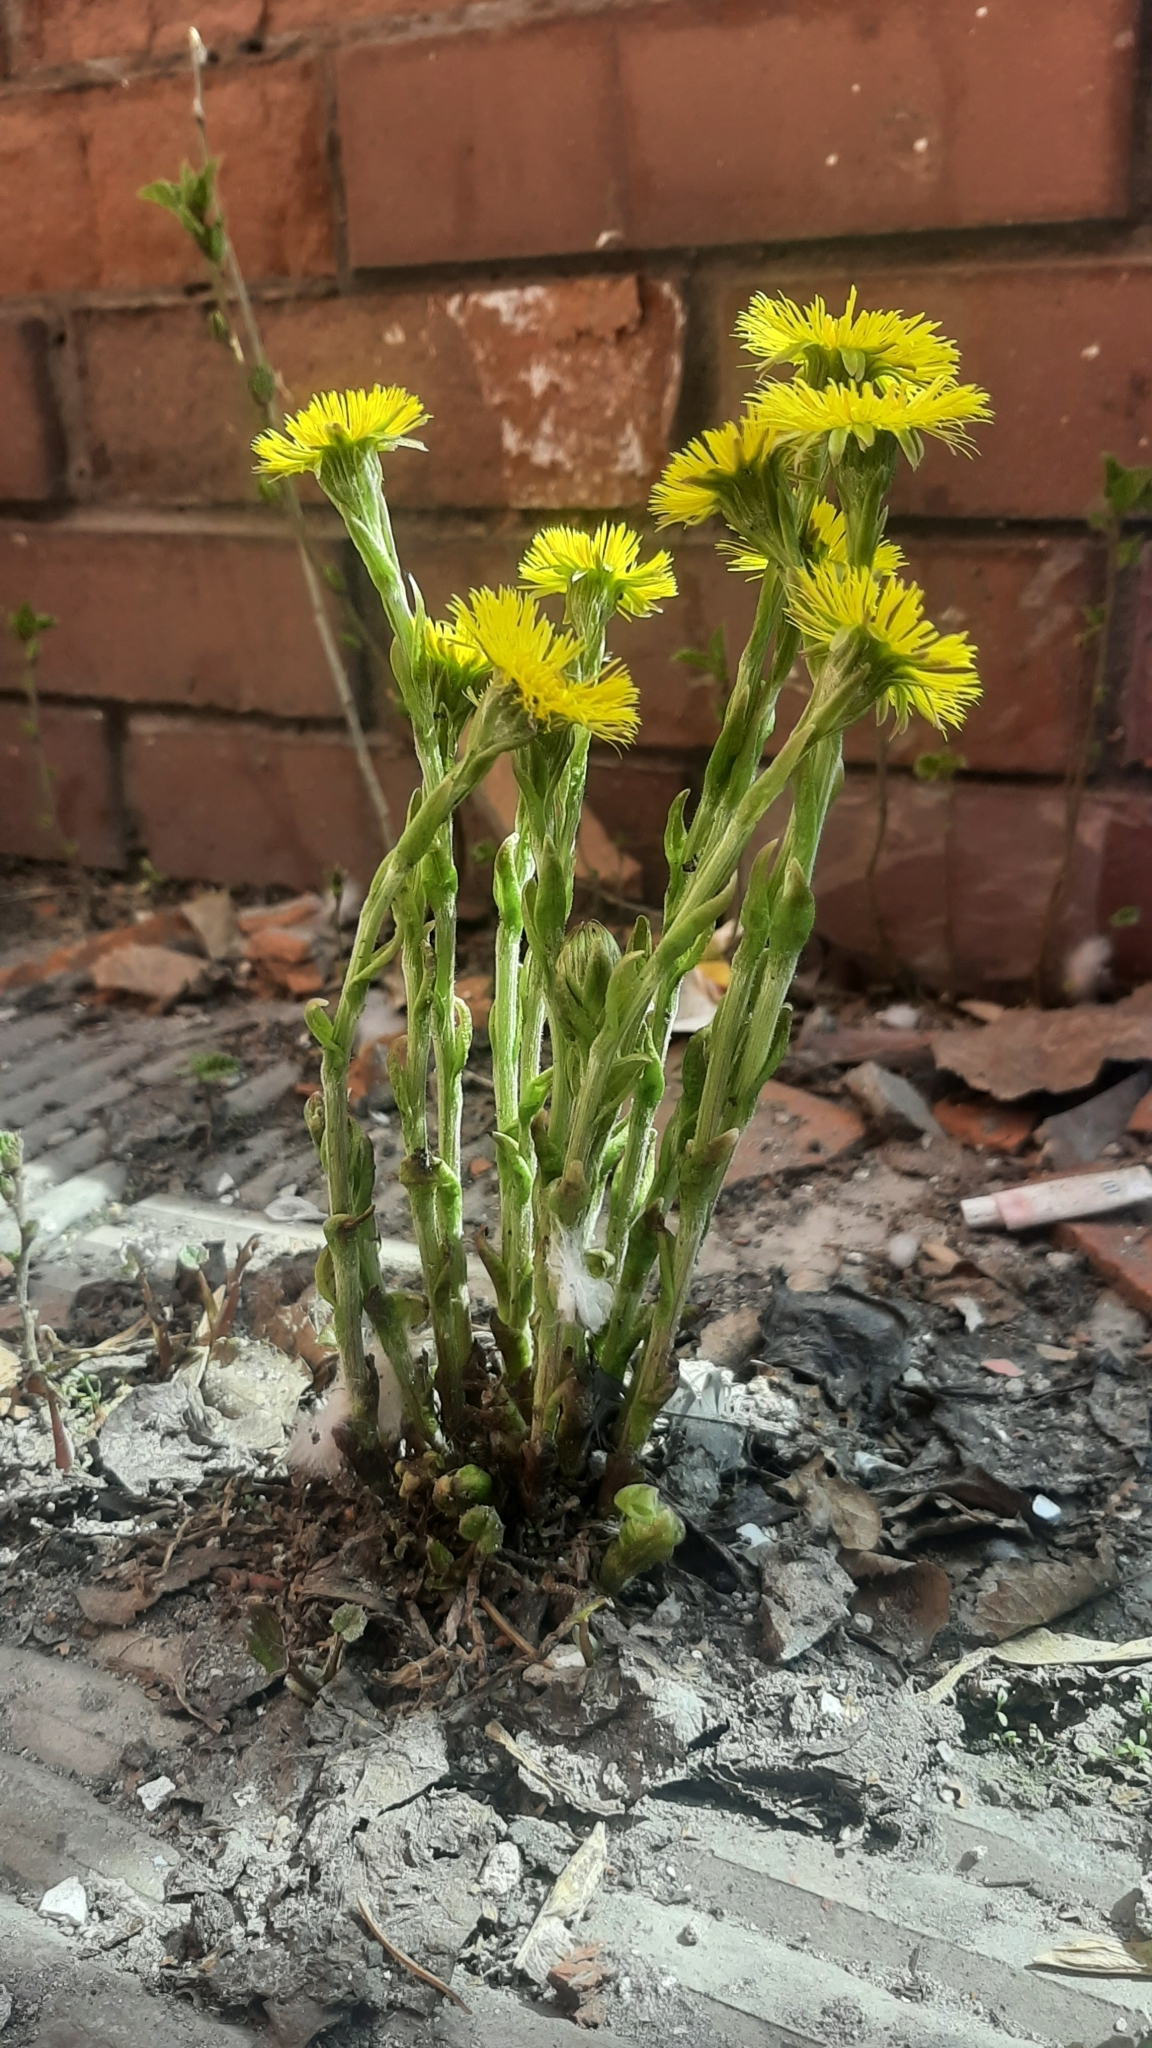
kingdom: Plantae
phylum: Tracheophyta
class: Magnoliopsida
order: Asterales
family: Asteraceae
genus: Tussilago
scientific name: Tussilago farfara
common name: Coltsfoot
